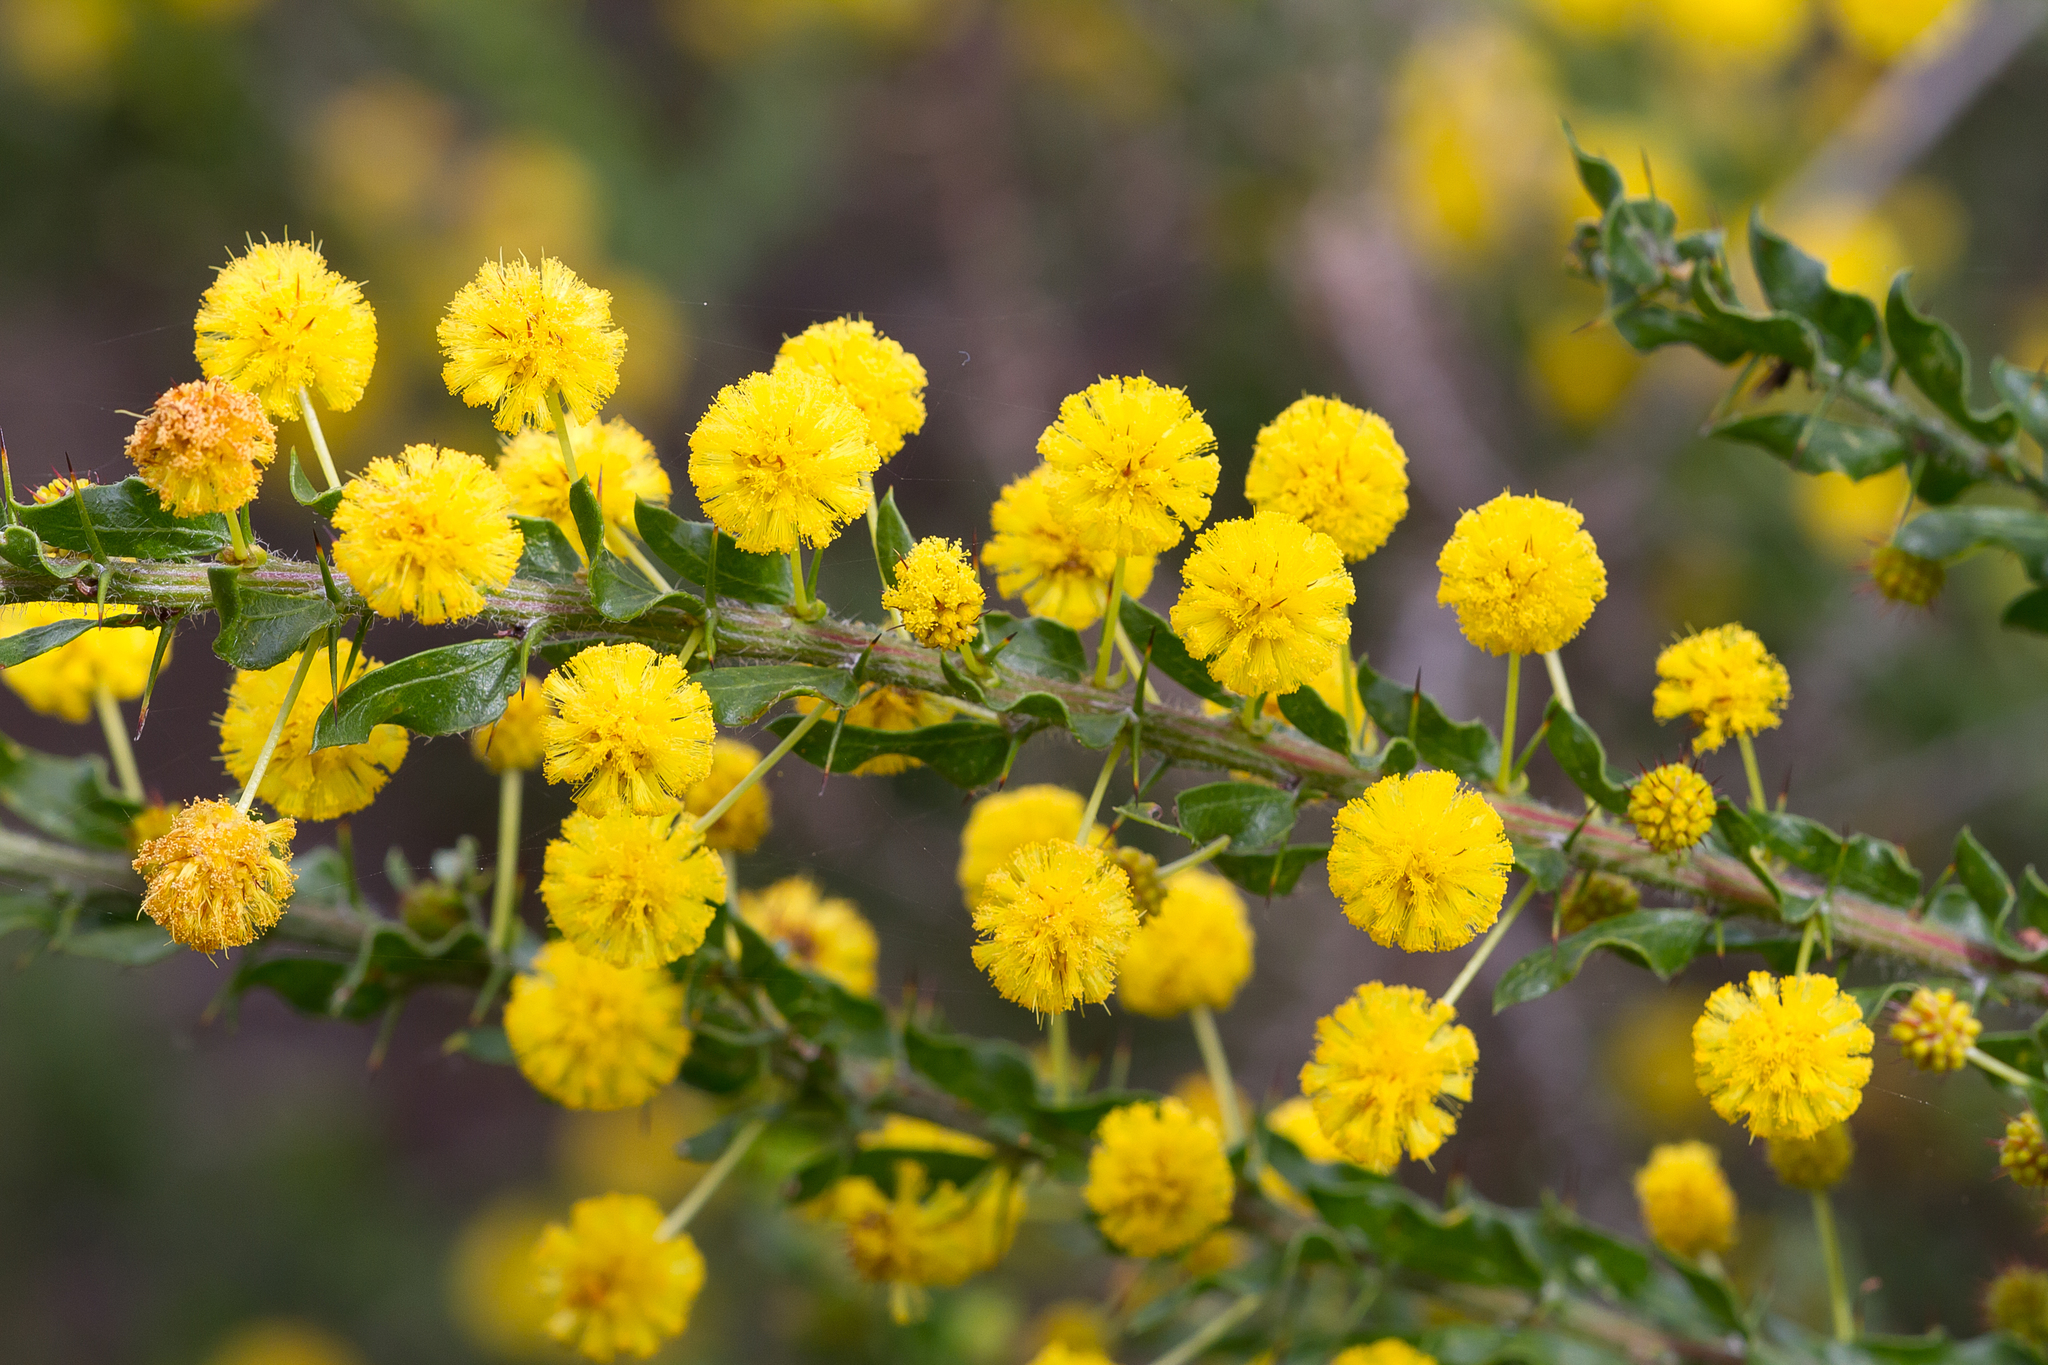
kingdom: Plantae
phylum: Tracheophyta
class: Magnoliopsida
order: Fabales
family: Fabaceae
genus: Acacia
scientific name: Acacia paradoxa
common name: Paradox acacia
